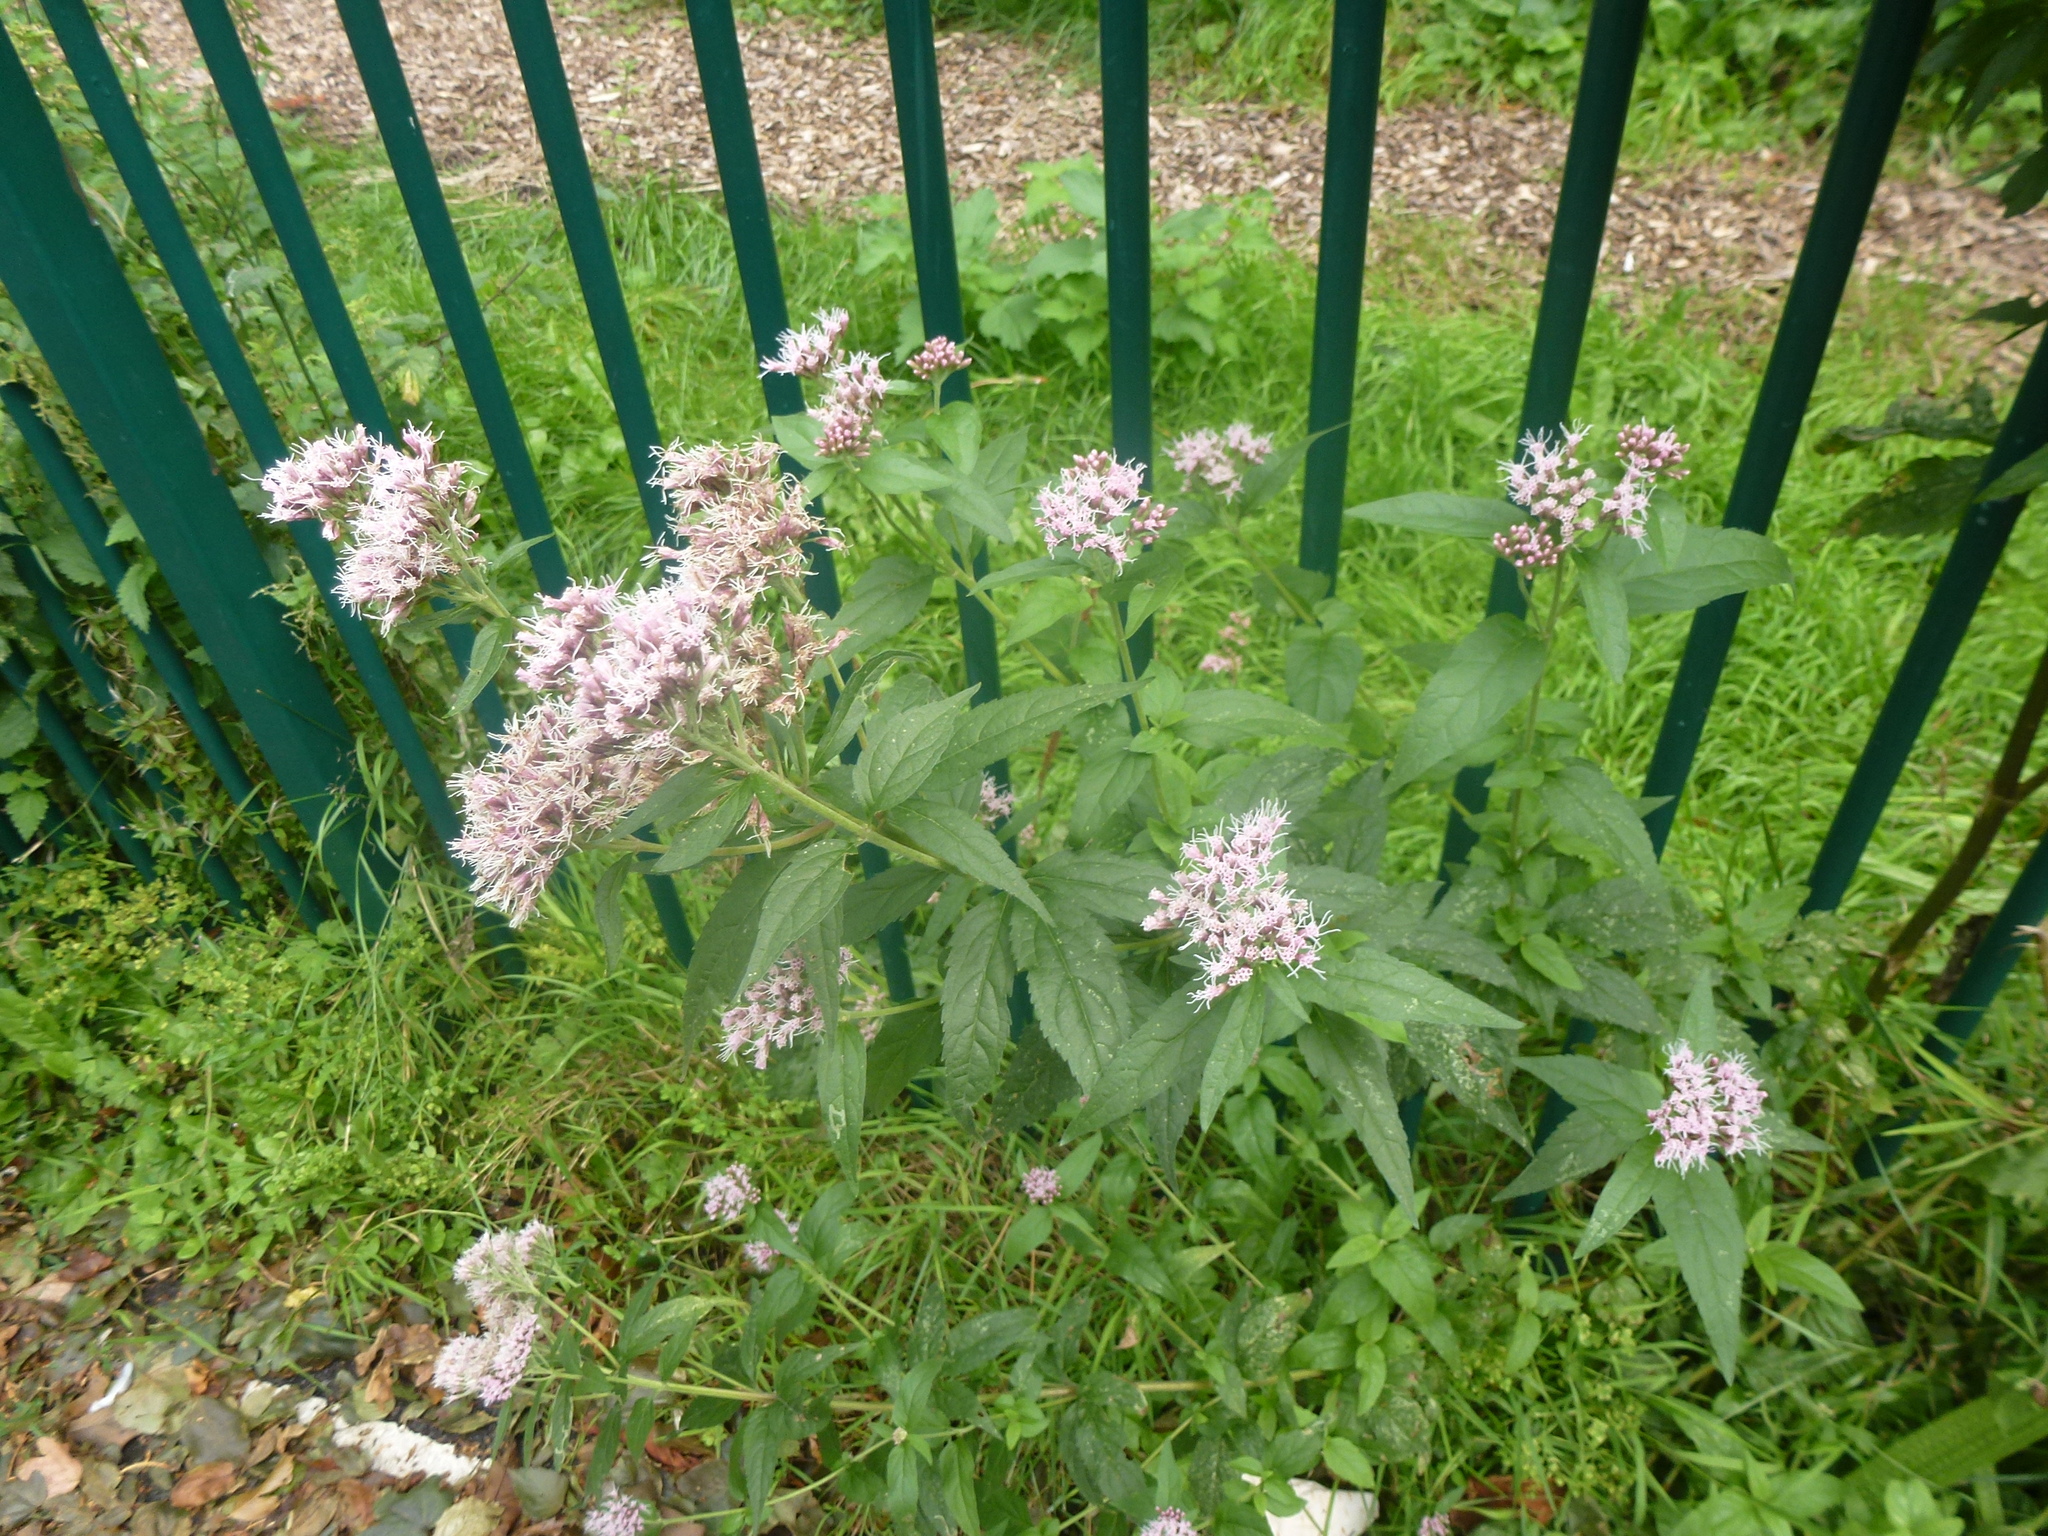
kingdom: Plantae
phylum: Tracheophyta
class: Magnoliopsida
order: Asterales
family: Asteraceae
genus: Eupatorium
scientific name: Eupatorium cannabinum
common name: Hemp-agrimony
